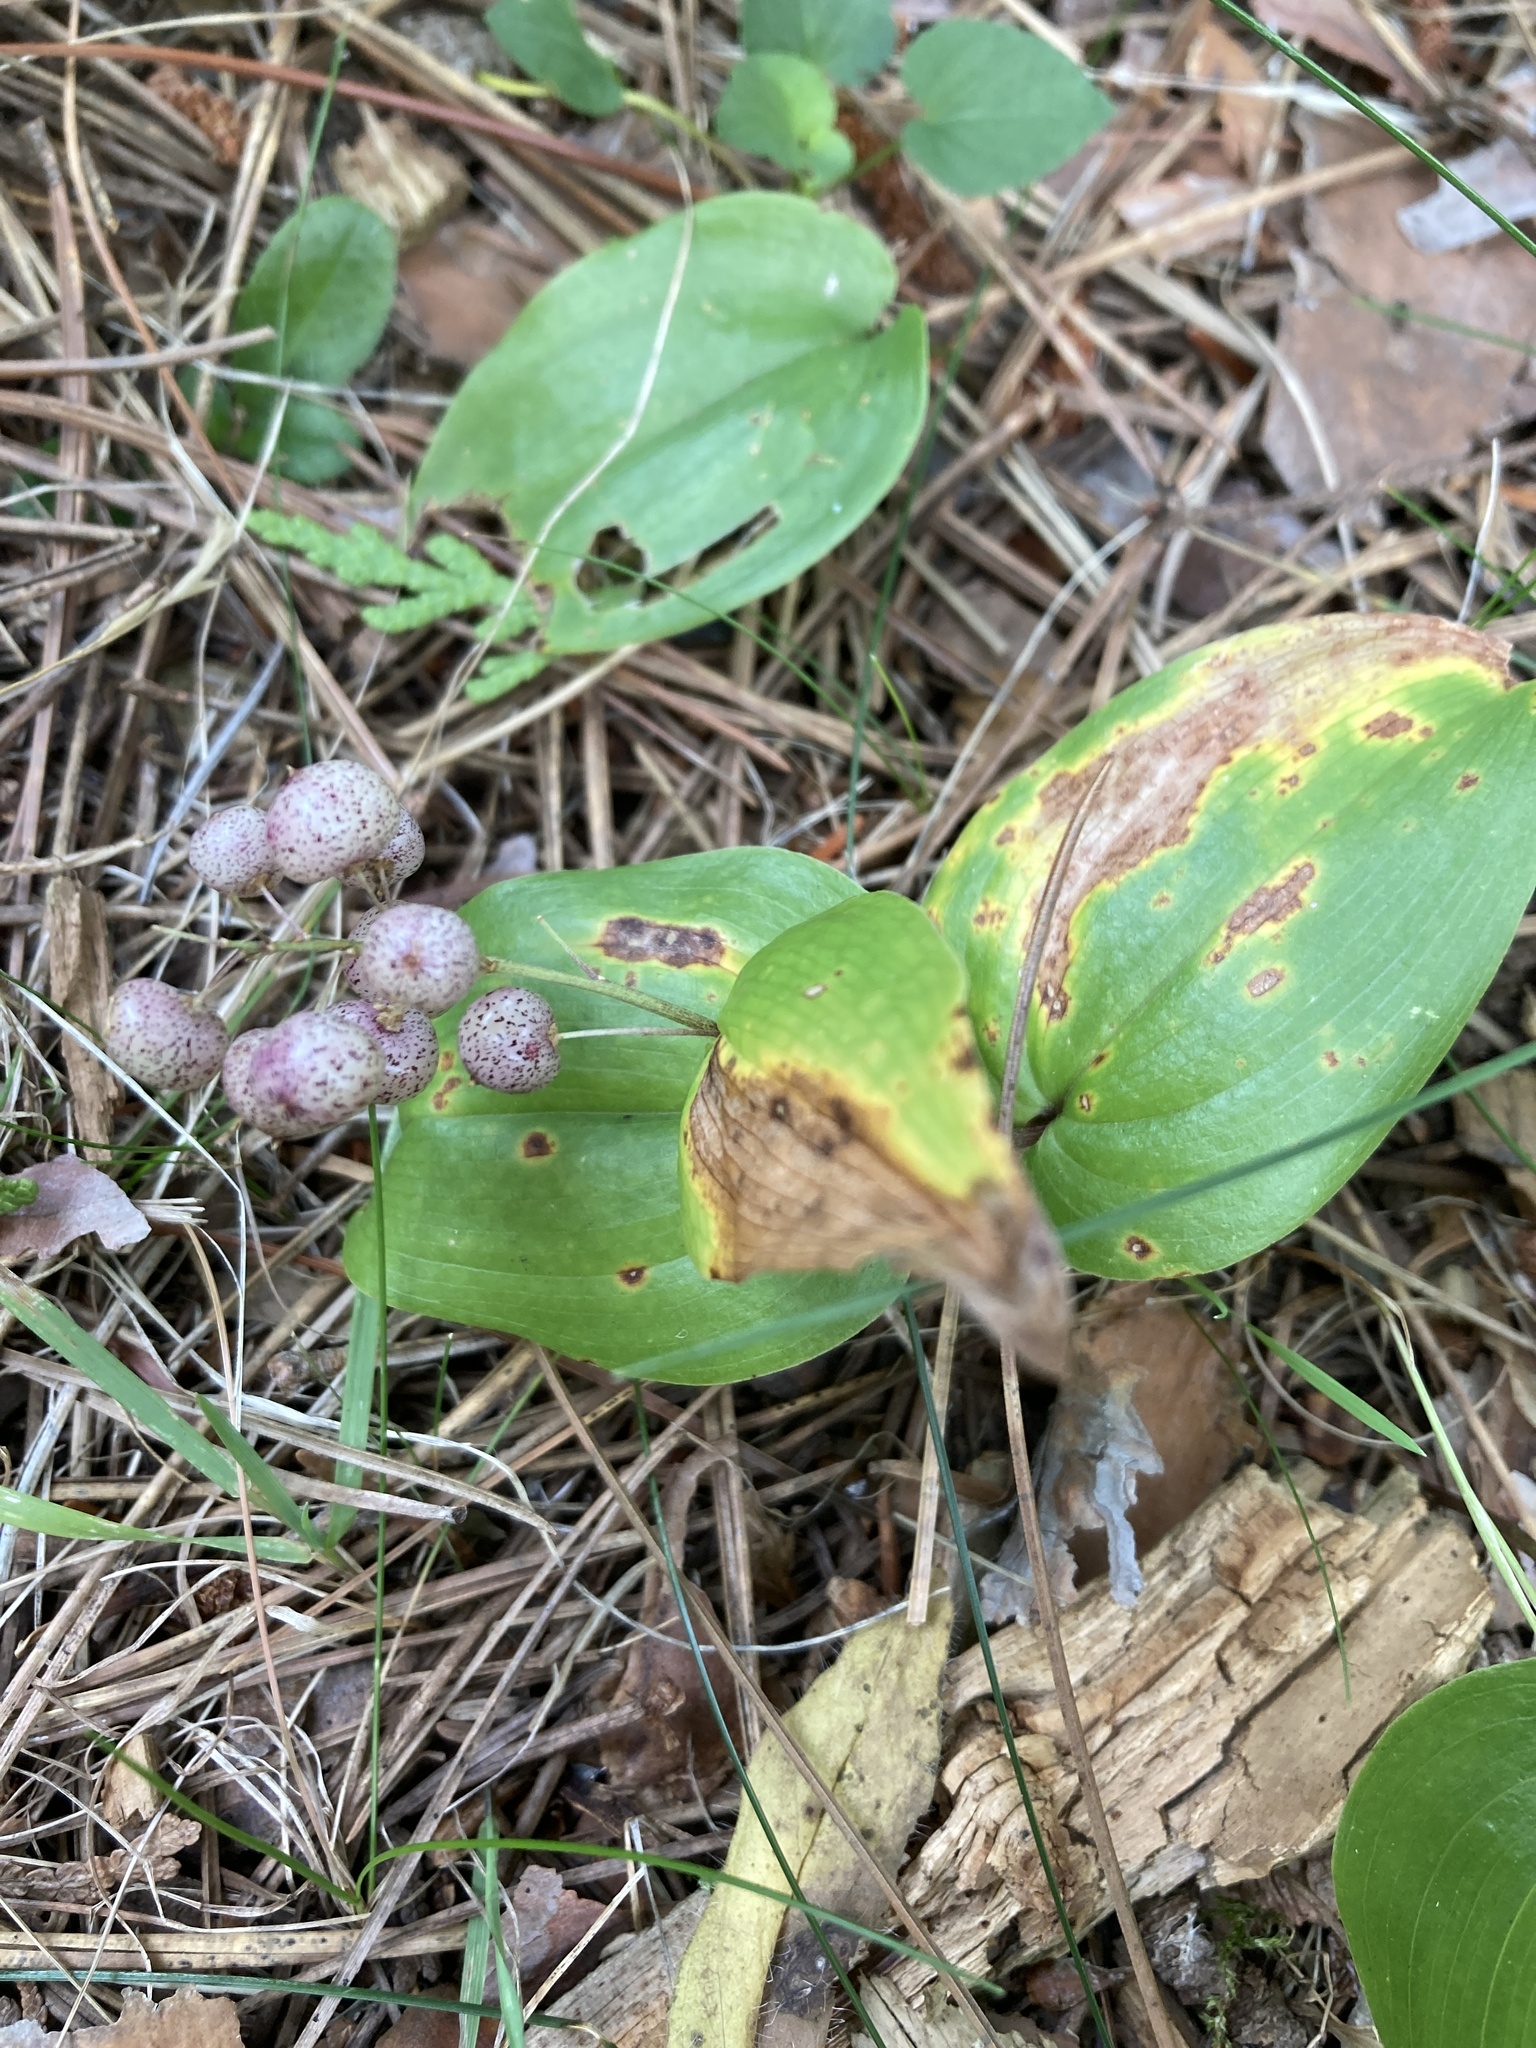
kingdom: Plantae
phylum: Tracheophyta
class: Liliopsida
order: Asparagales
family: Asparagaceae
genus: Maianthemum
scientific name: Maianthemum canadense
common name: False lily-of-the-valley
